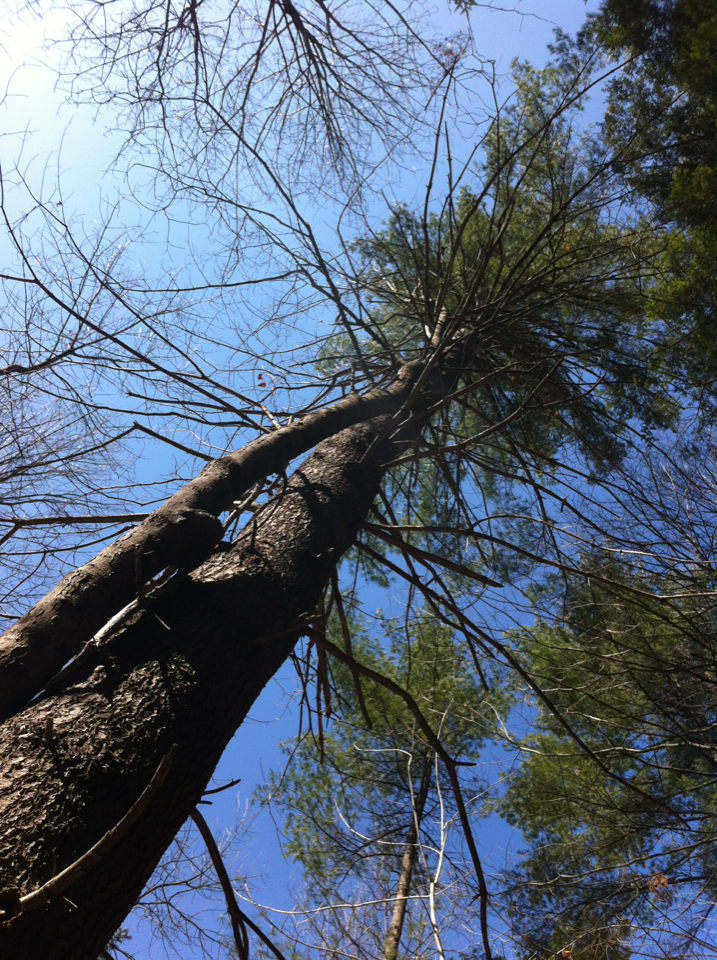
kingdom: Plantae
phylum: Tracheophyta
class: Pinopsida
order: Pinales
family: Pinaceae
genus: Pinus
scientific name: Pinus strobus
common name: Weymouth pine
